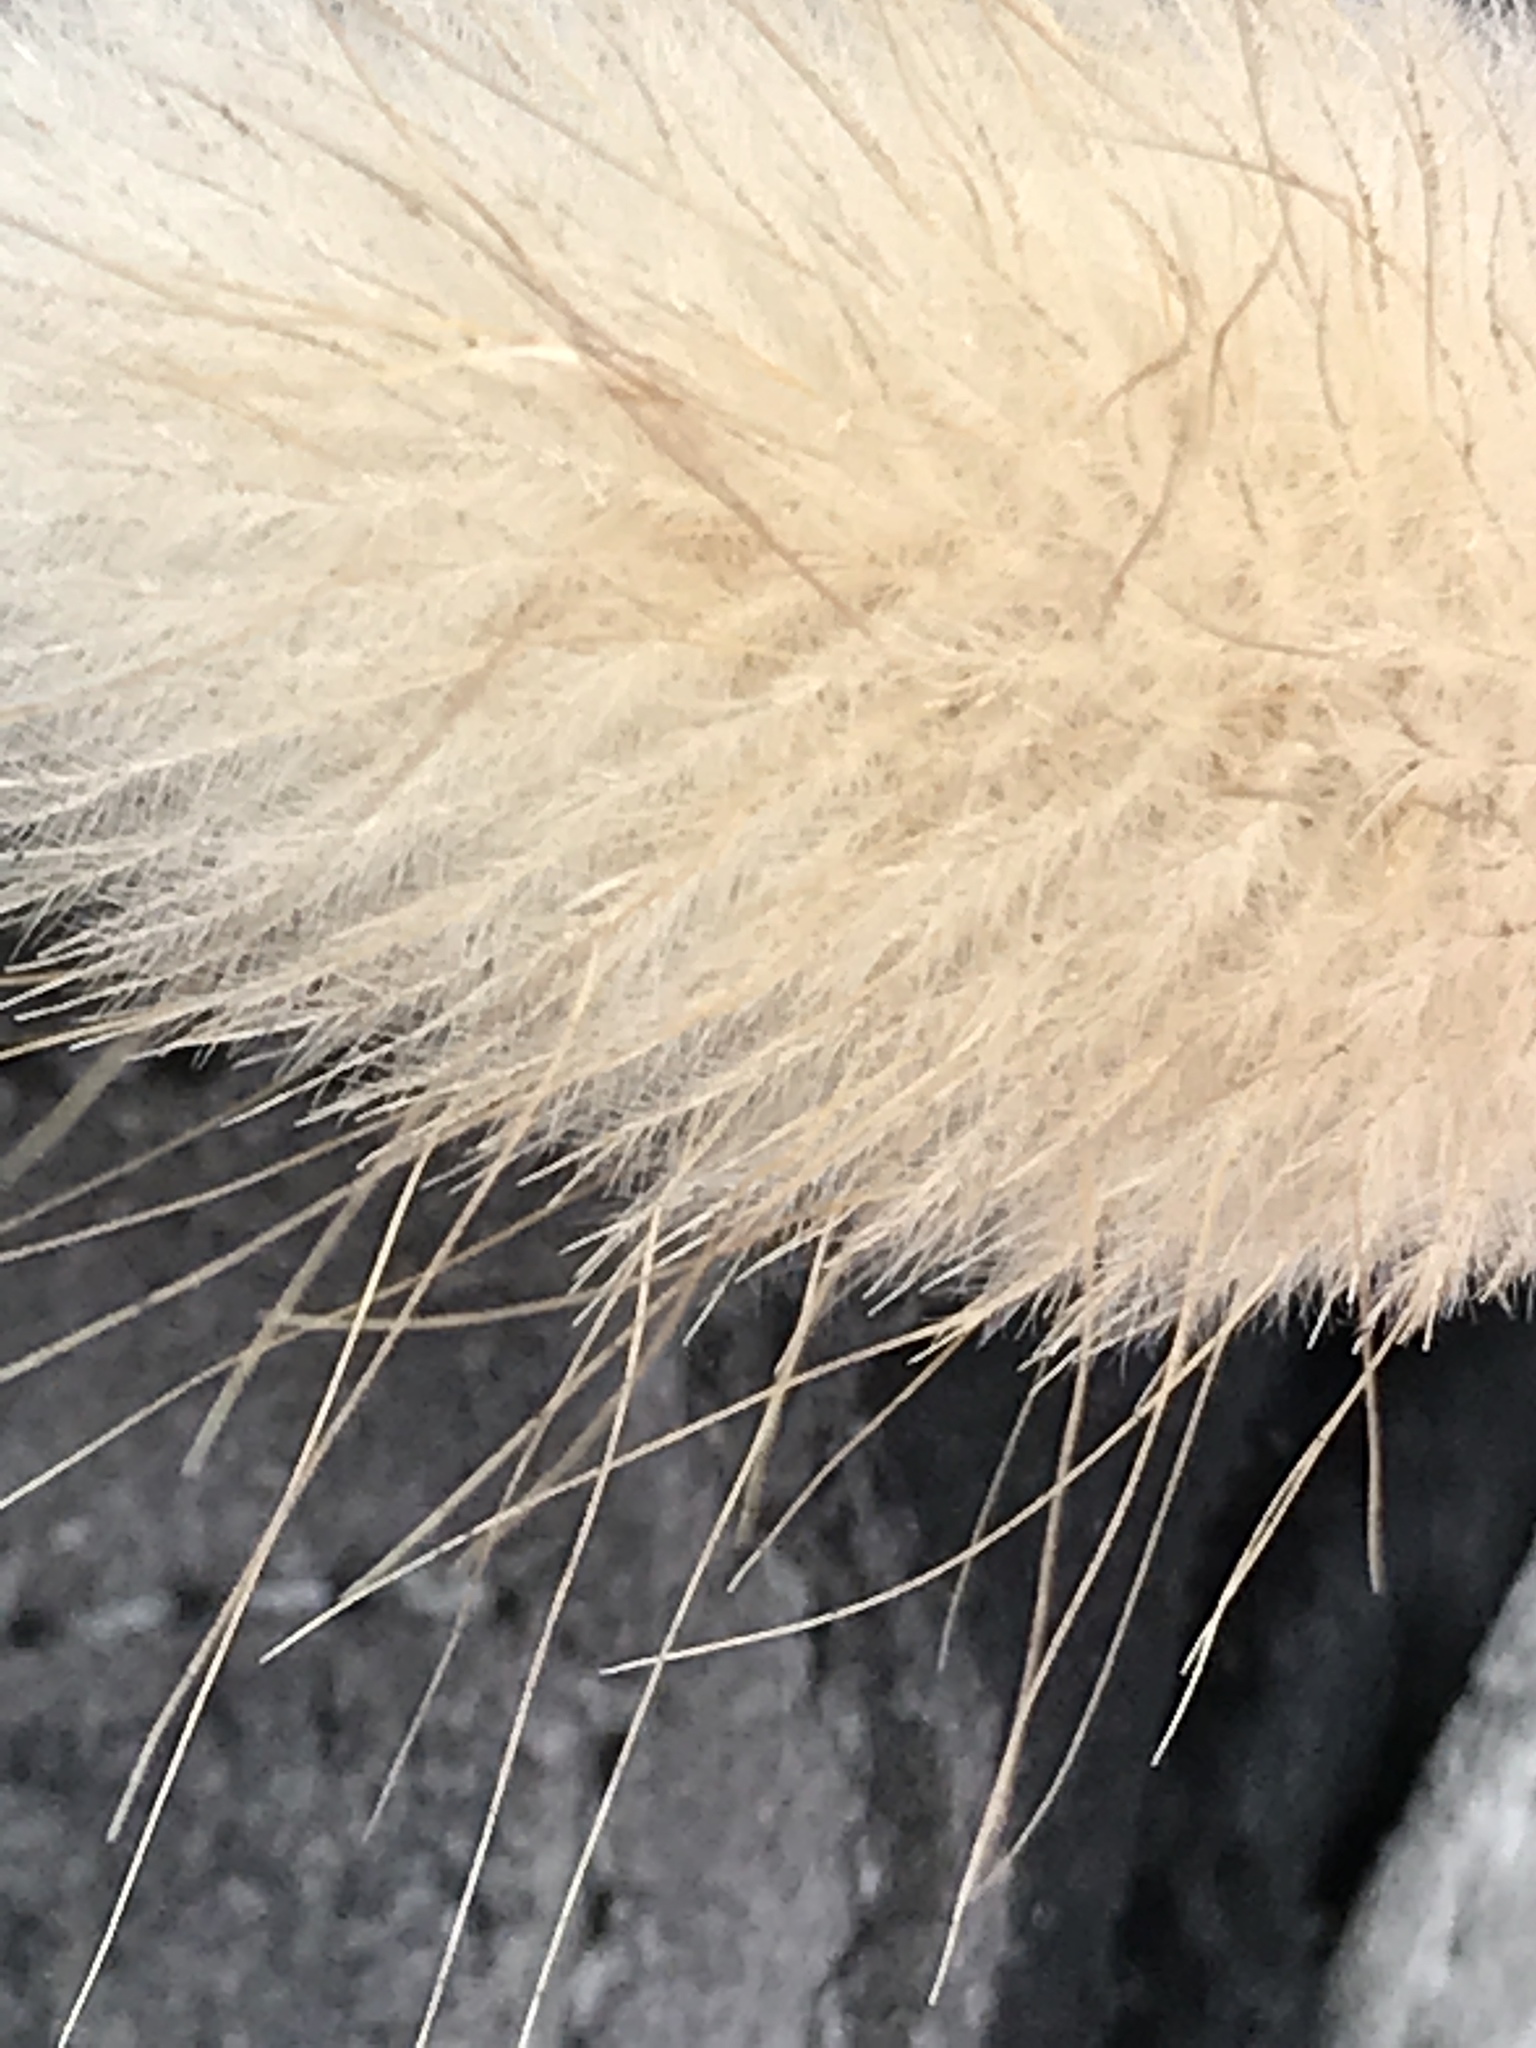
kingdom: Plantae
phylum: Tracheophyta
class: Liliopsida
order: Poales
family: Poaceae
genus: Lagurus
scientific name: Lagurus ovatus
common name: Hare's-tail
